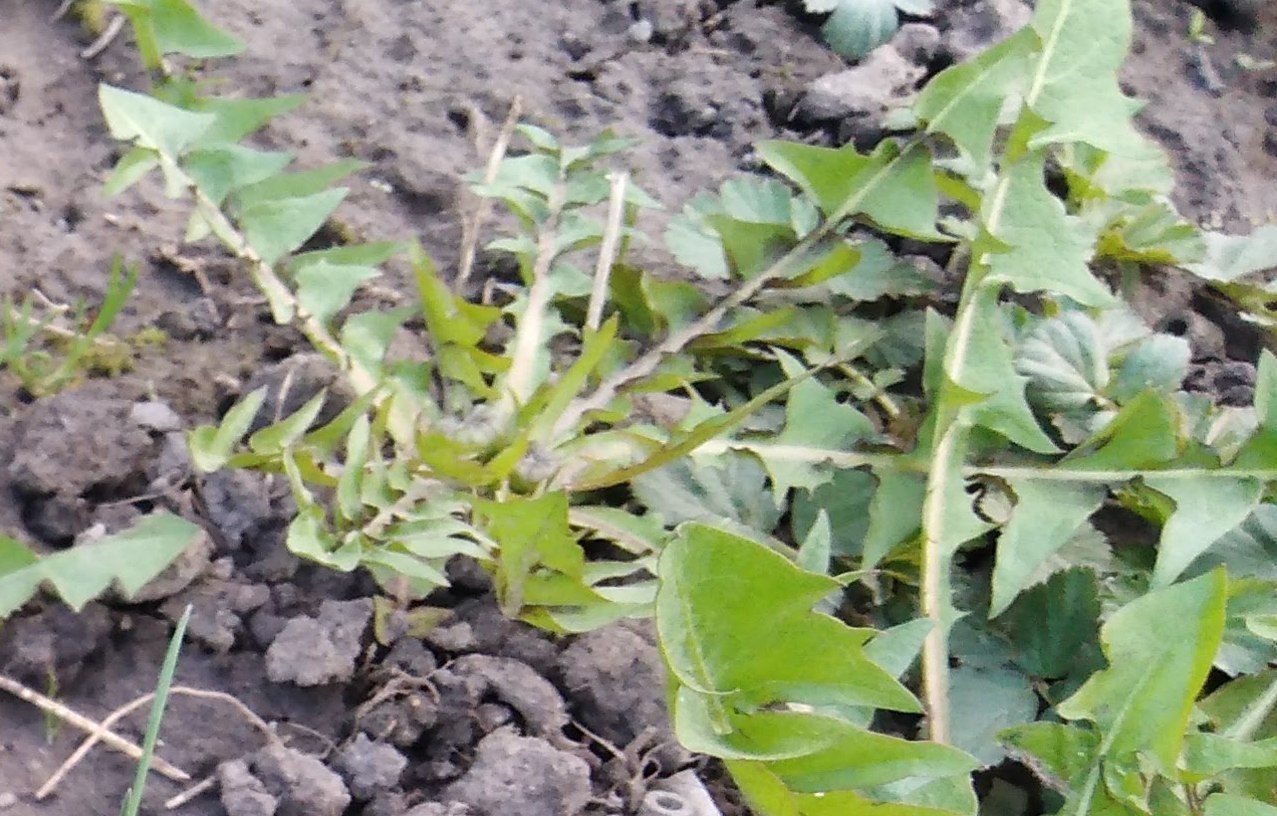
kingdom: Plantae
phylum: Tracheophyta
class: Magnoliopsida
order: Asterales
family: Asteraceae
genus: Taraxacum
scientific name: Taraxacum officinale
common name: Common dandelion
